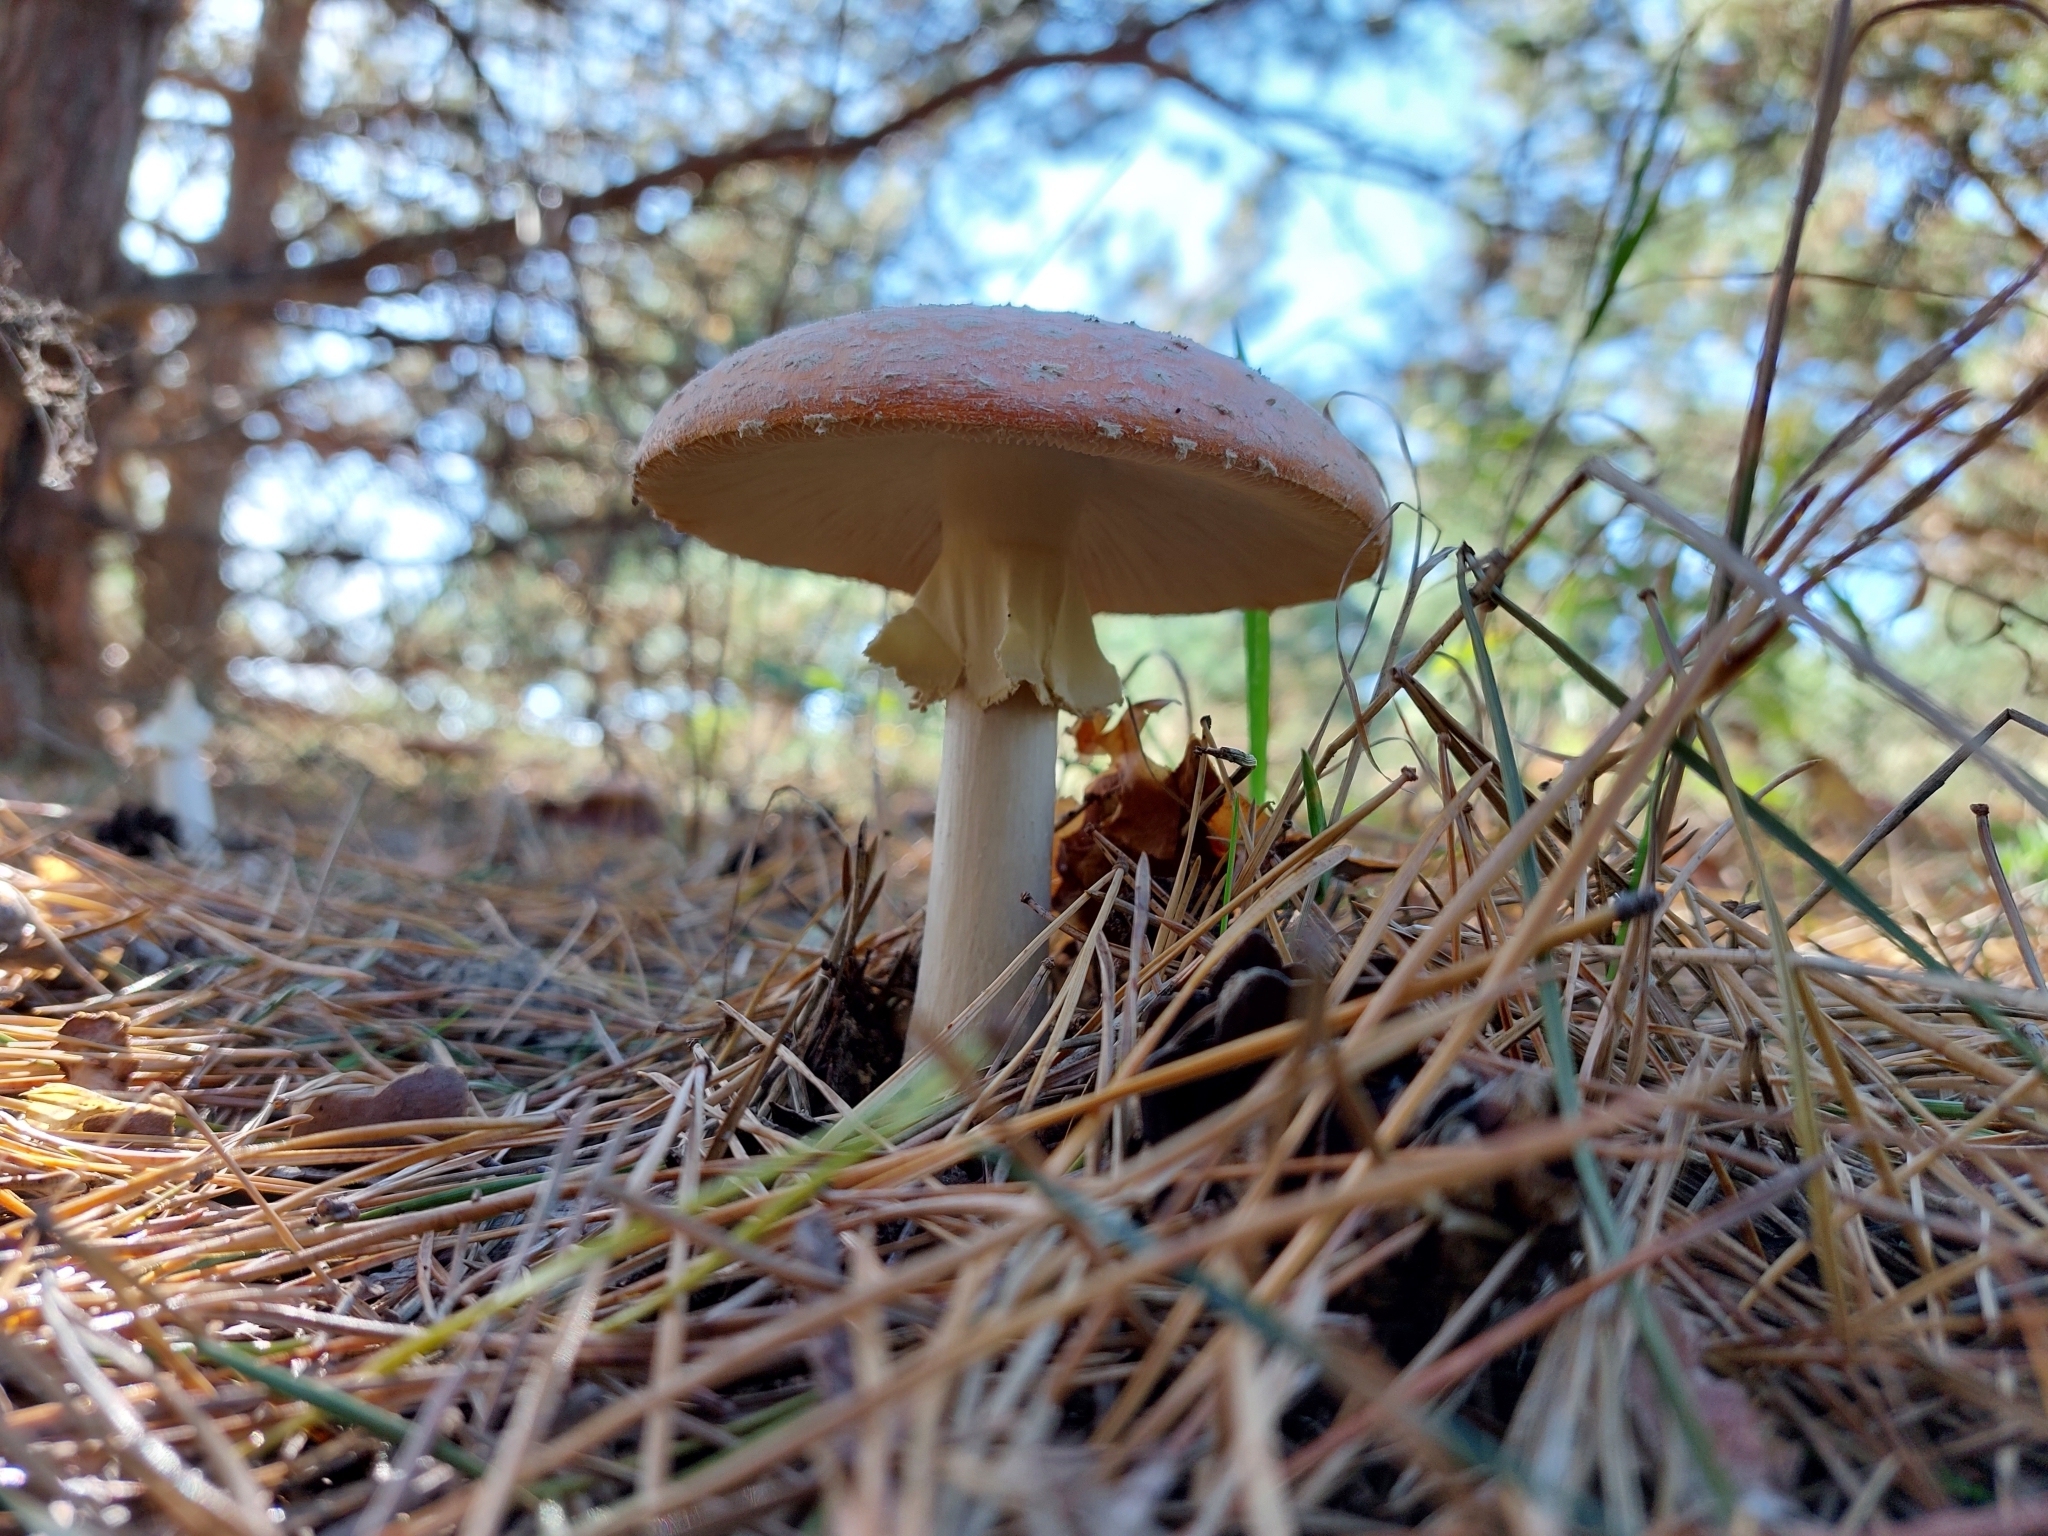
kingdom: Fungi
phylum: Basidiomycota
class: Agaricomycetes
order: Agaricales
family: Amanitaceae
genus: Amanita
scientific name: Amanita muscaria
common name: Fly agaric
